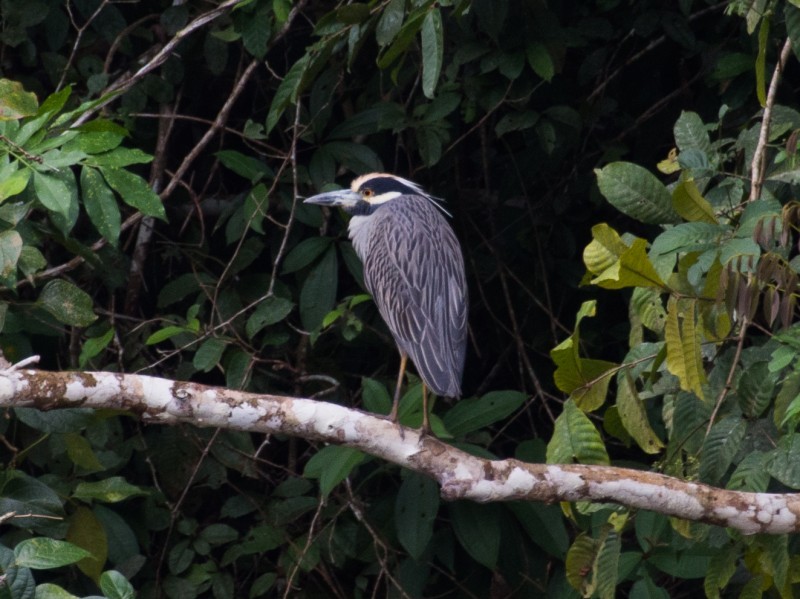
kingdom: Animalia
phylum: Chordata
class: Aves
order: Pelecaniformes
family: Ardeidae
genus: Nyctanassa
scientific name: Nyctanassa violacea
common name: Yellow-crowned night heron
